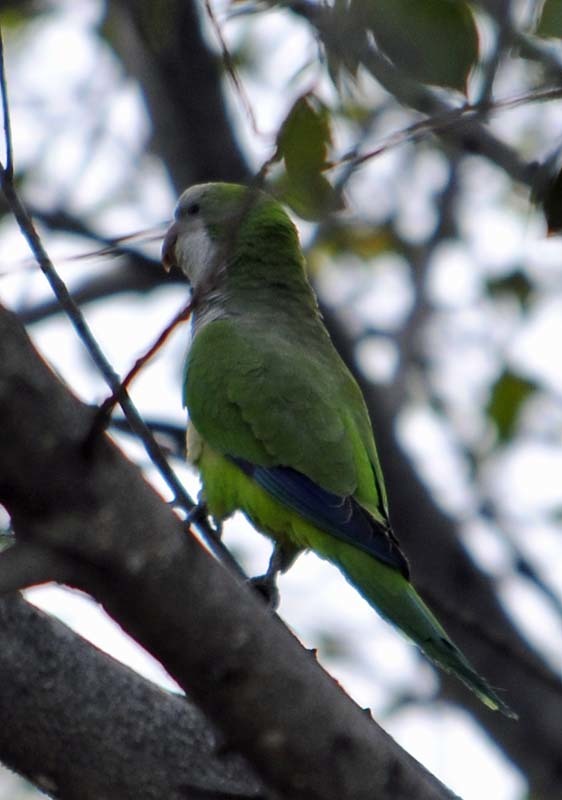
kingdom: Animalia
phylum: Chordata
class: Aves
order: Psittaciformes
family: Psittacidae
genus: Myiopsitta
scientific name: Myiopsitta monachus
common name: Monk parakeet
